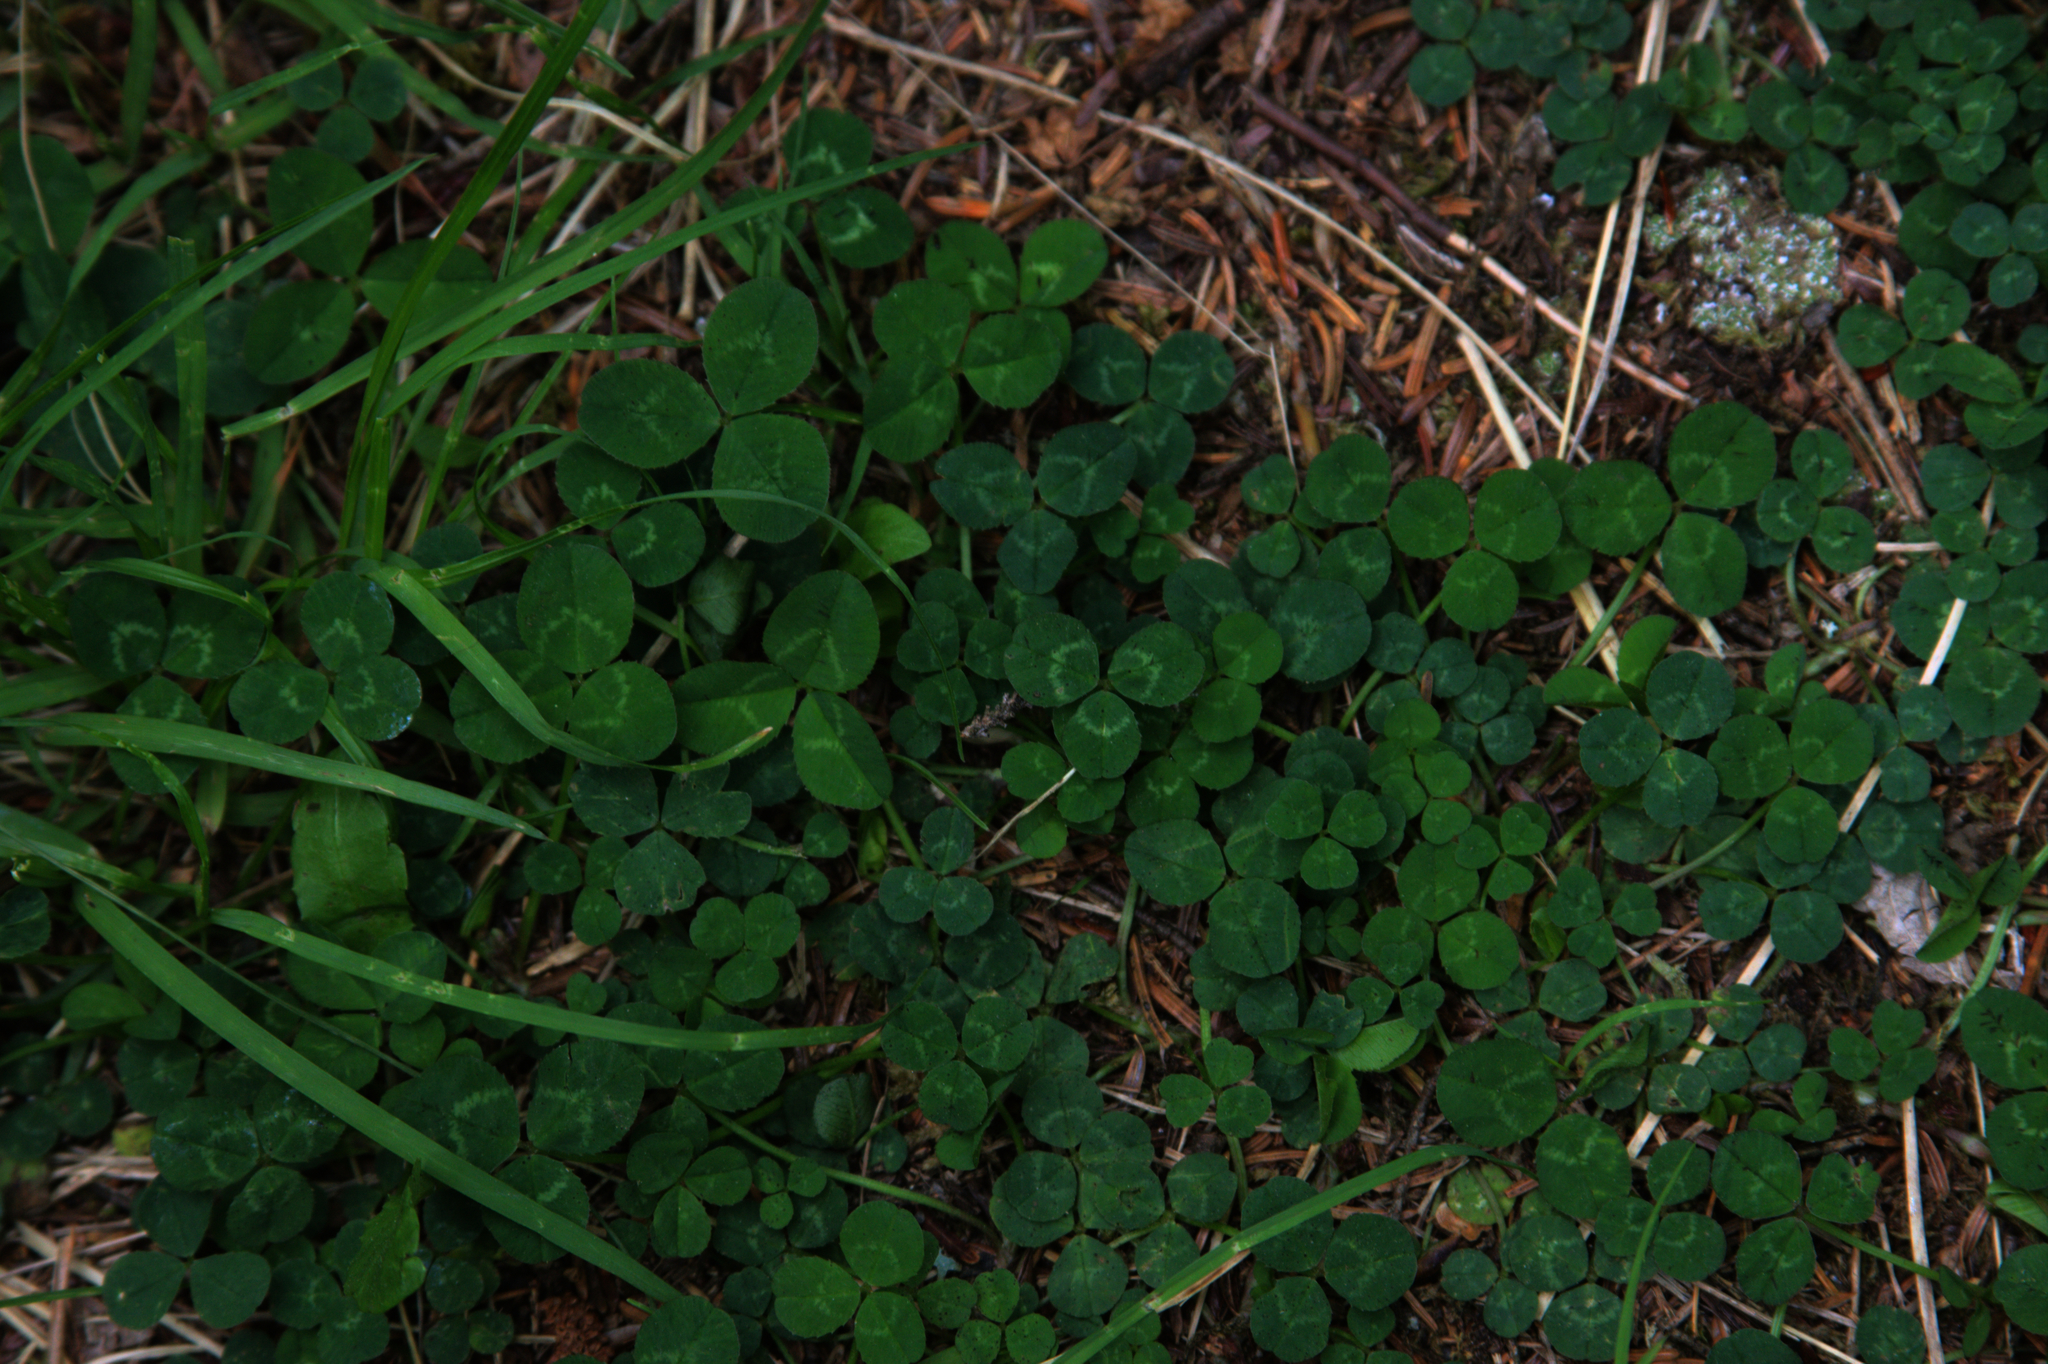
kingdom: Plantae
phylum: Tracheophyta
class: Magnoliopsida
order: Fabales
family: Fabaceae
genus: Trifolium
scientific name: Trifolium repens
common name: White clover
